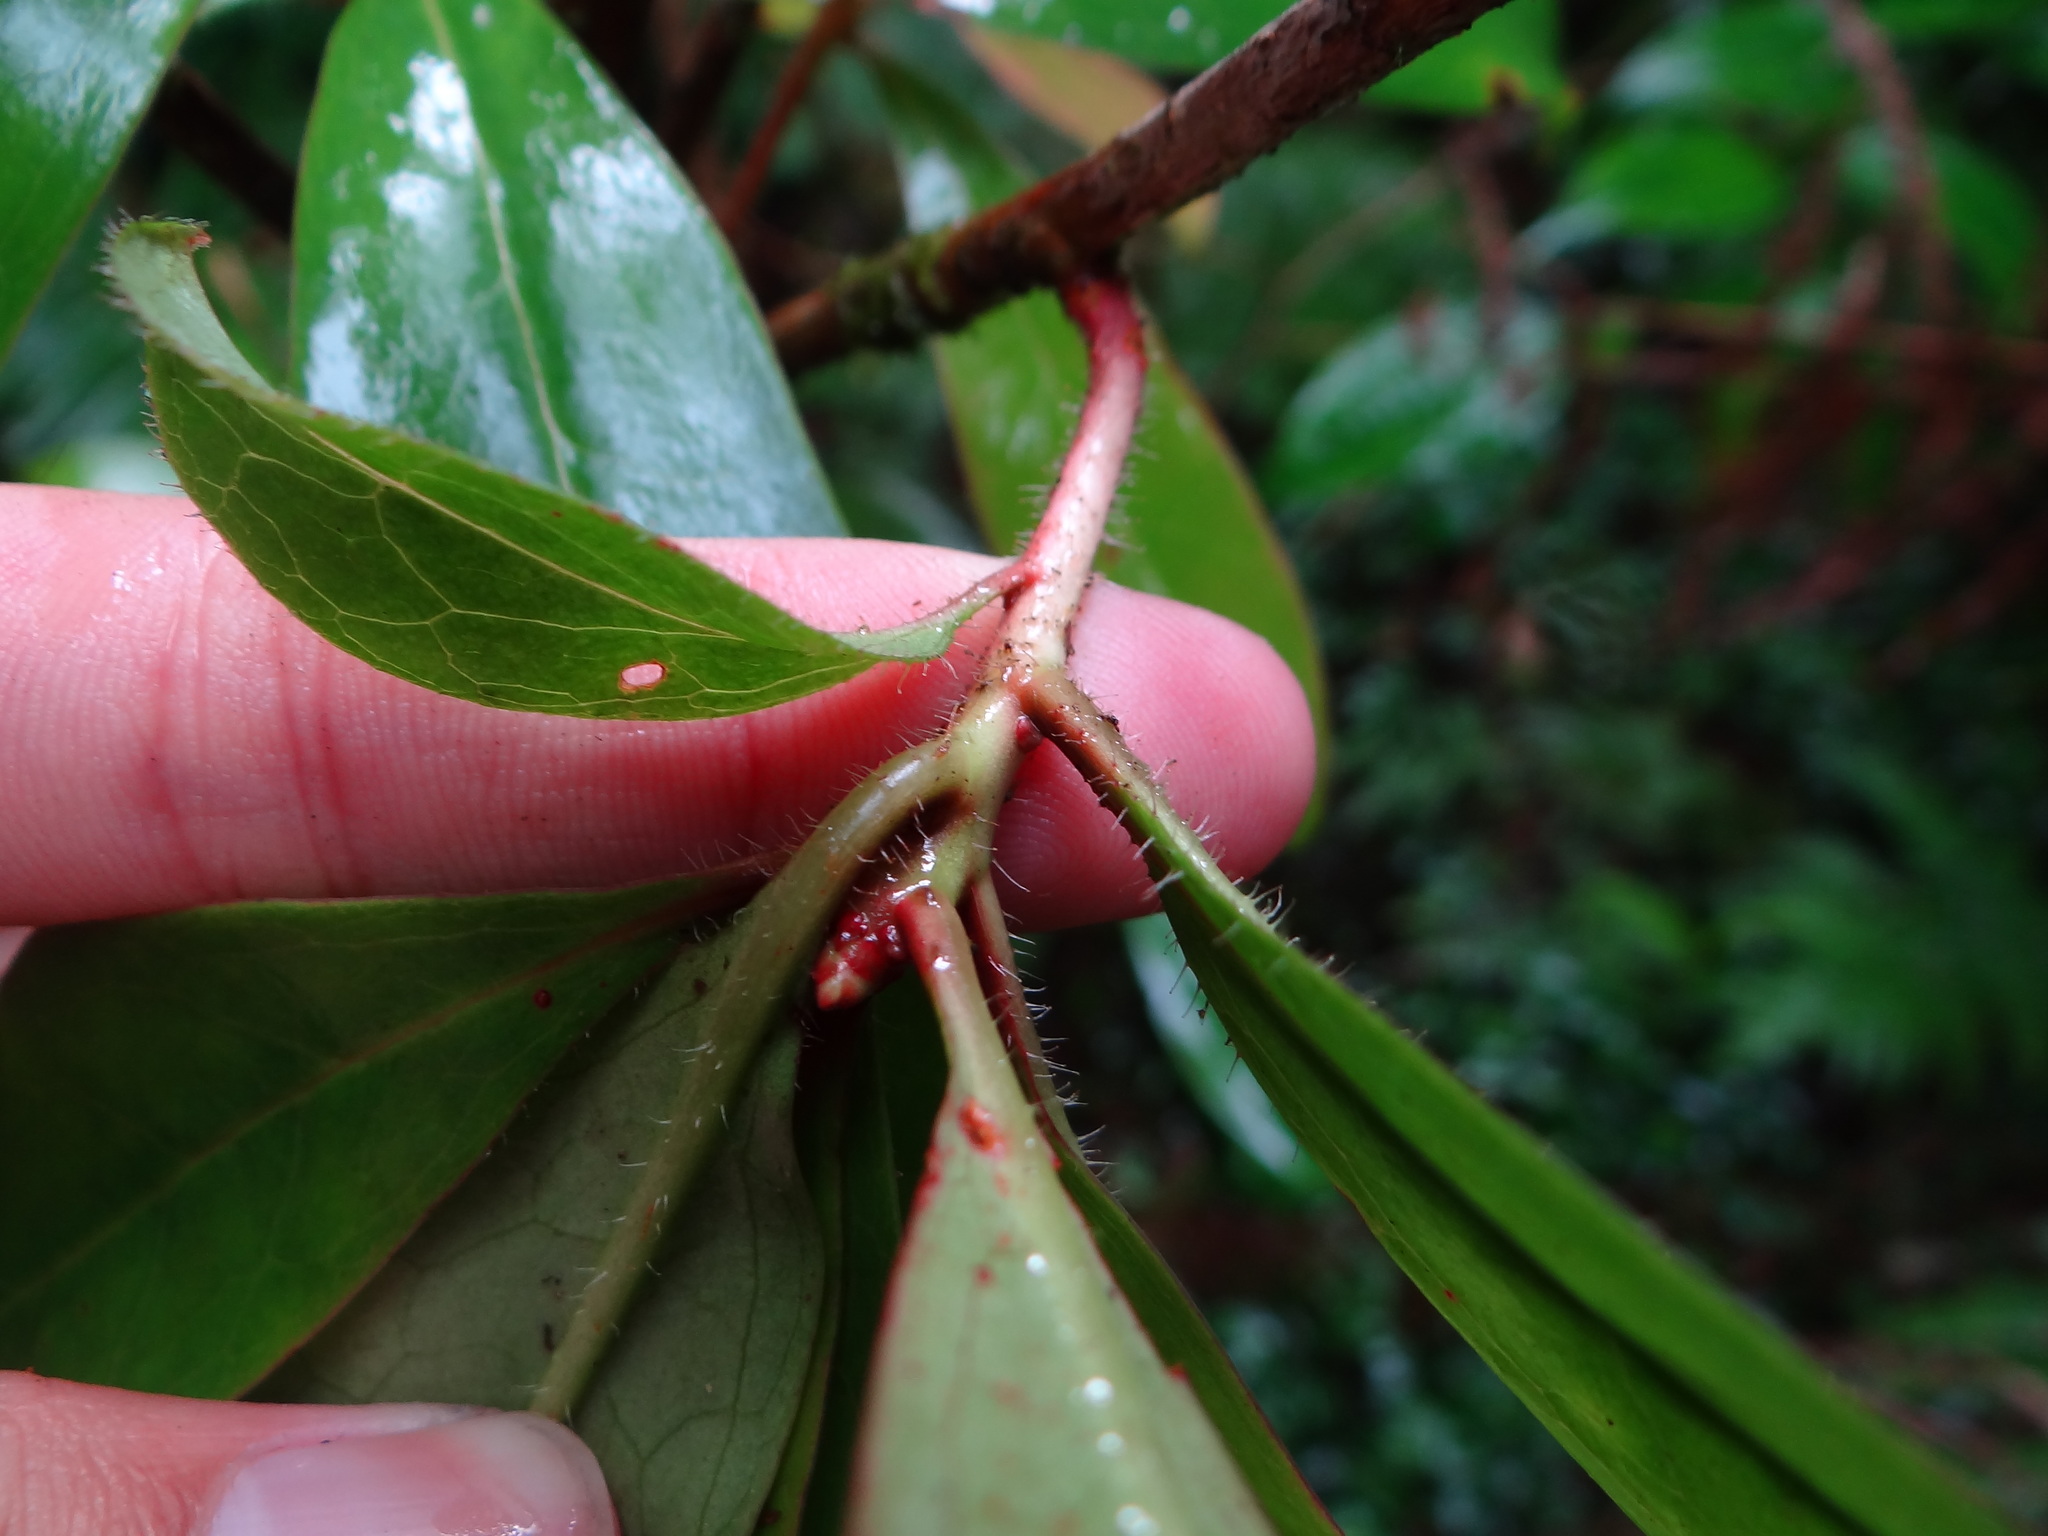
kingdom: Plantae
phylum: Tracheophyta
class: Magnoliopsida
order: Ericales
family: Ericaceae
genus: Rhododendron
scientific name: Rhododendron latoucheae
